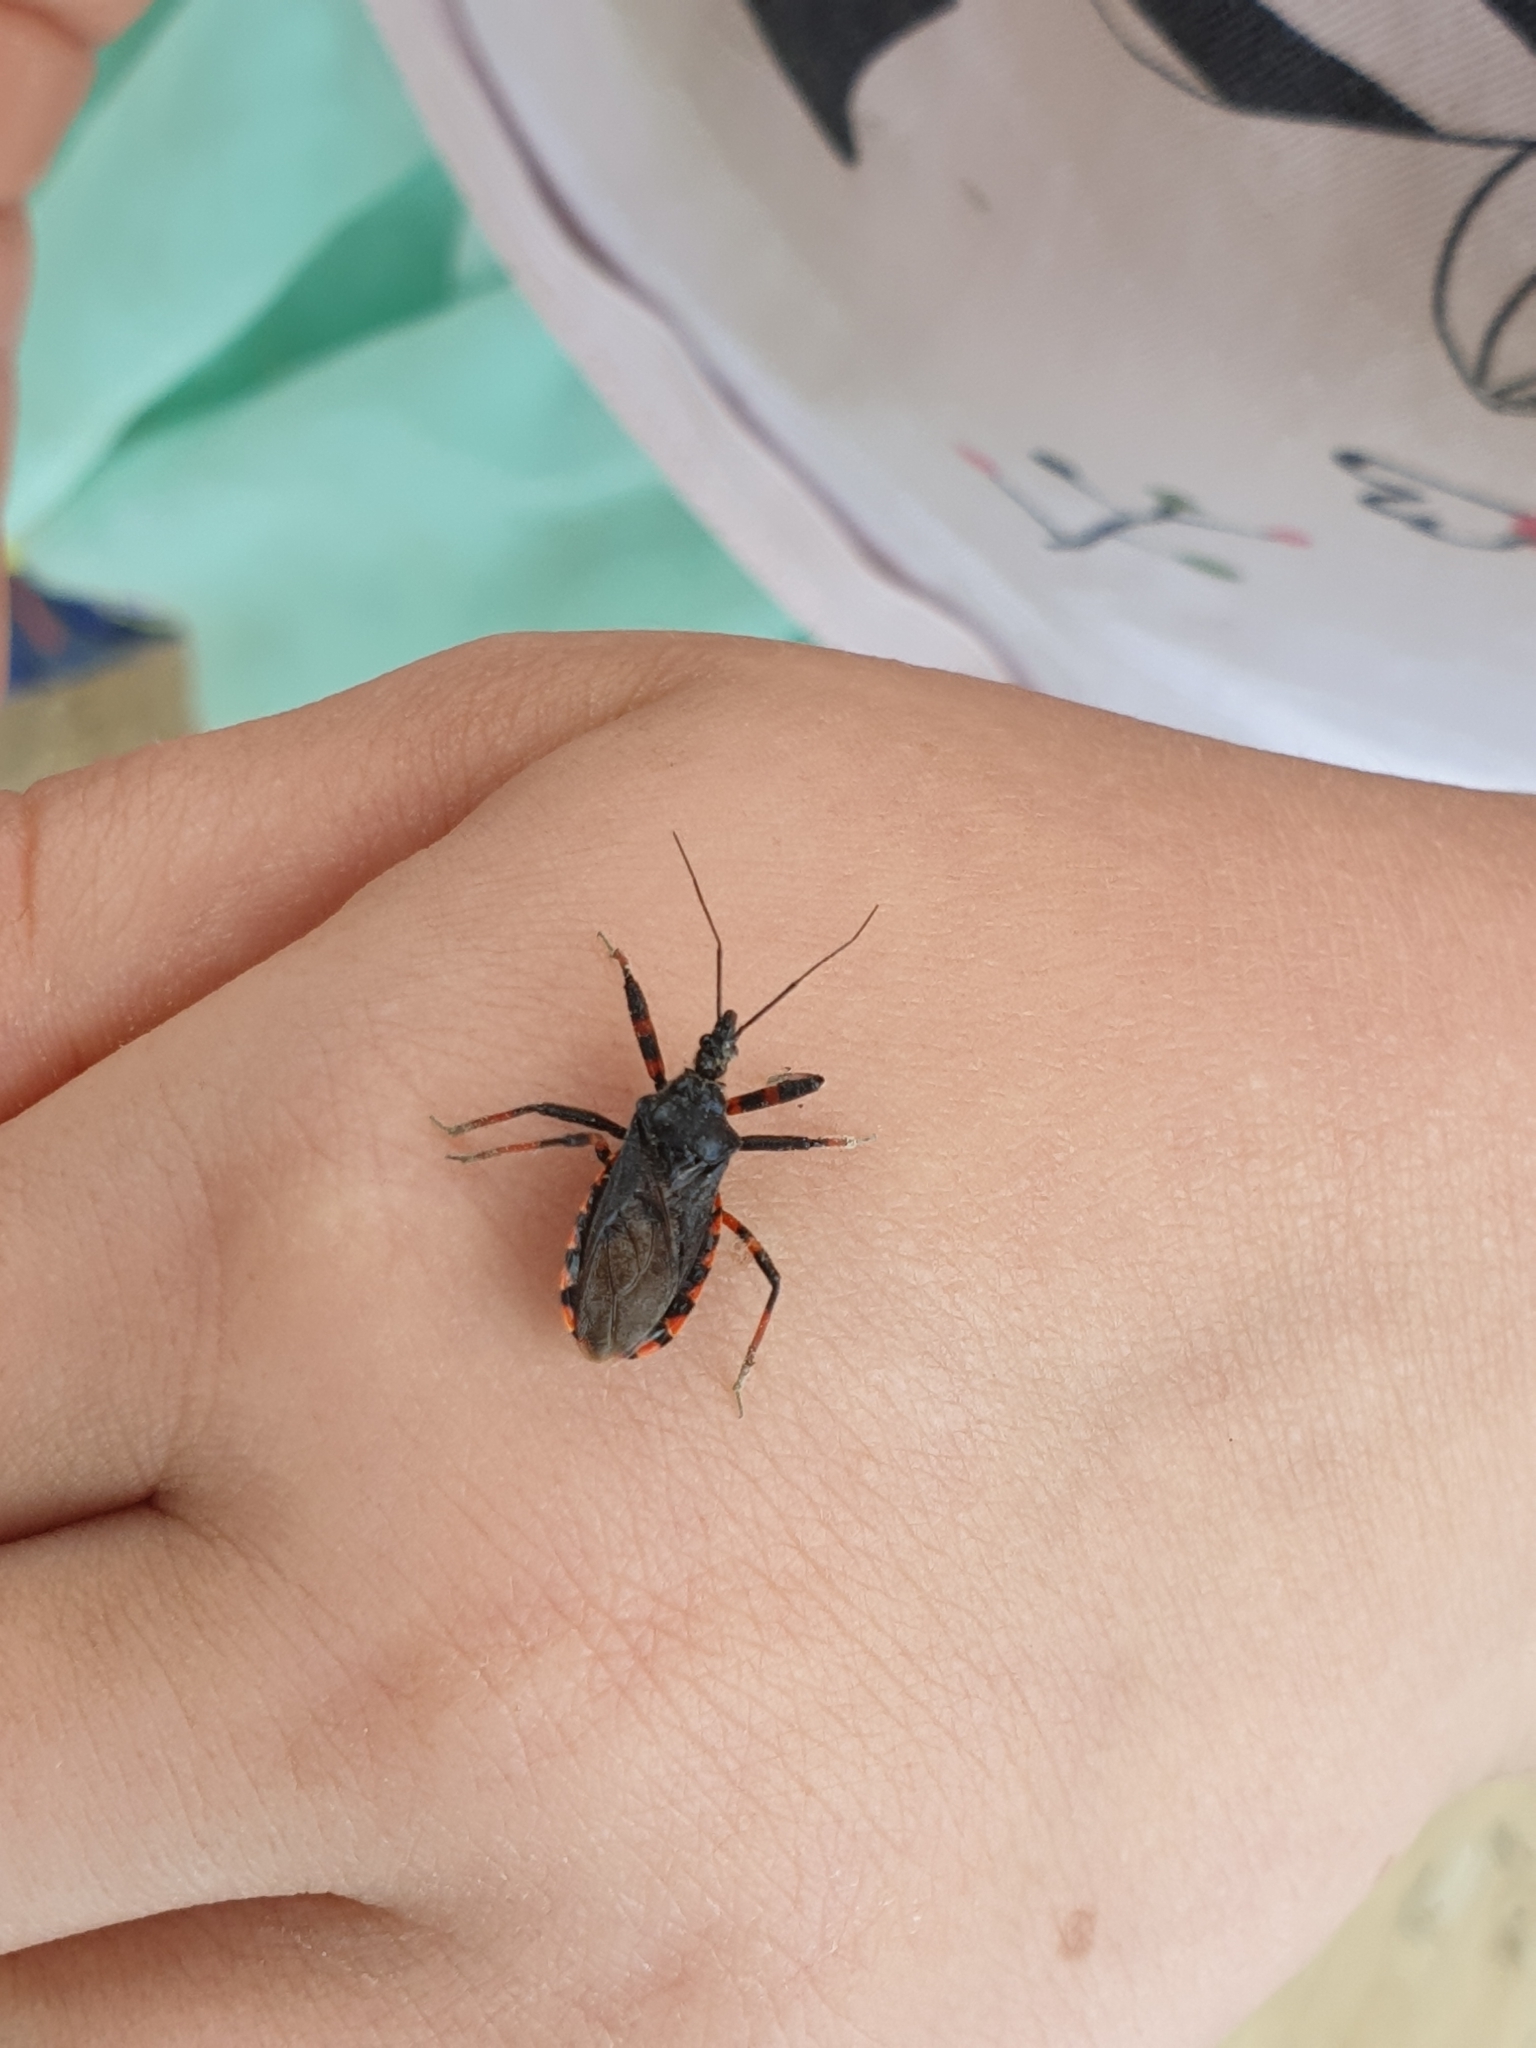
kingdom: Animalia
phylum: Arthropoda
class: Insecta
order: Hemiptera
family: Reduviidae
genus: Rhynocoris
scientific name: Rhynocoris annulatus
